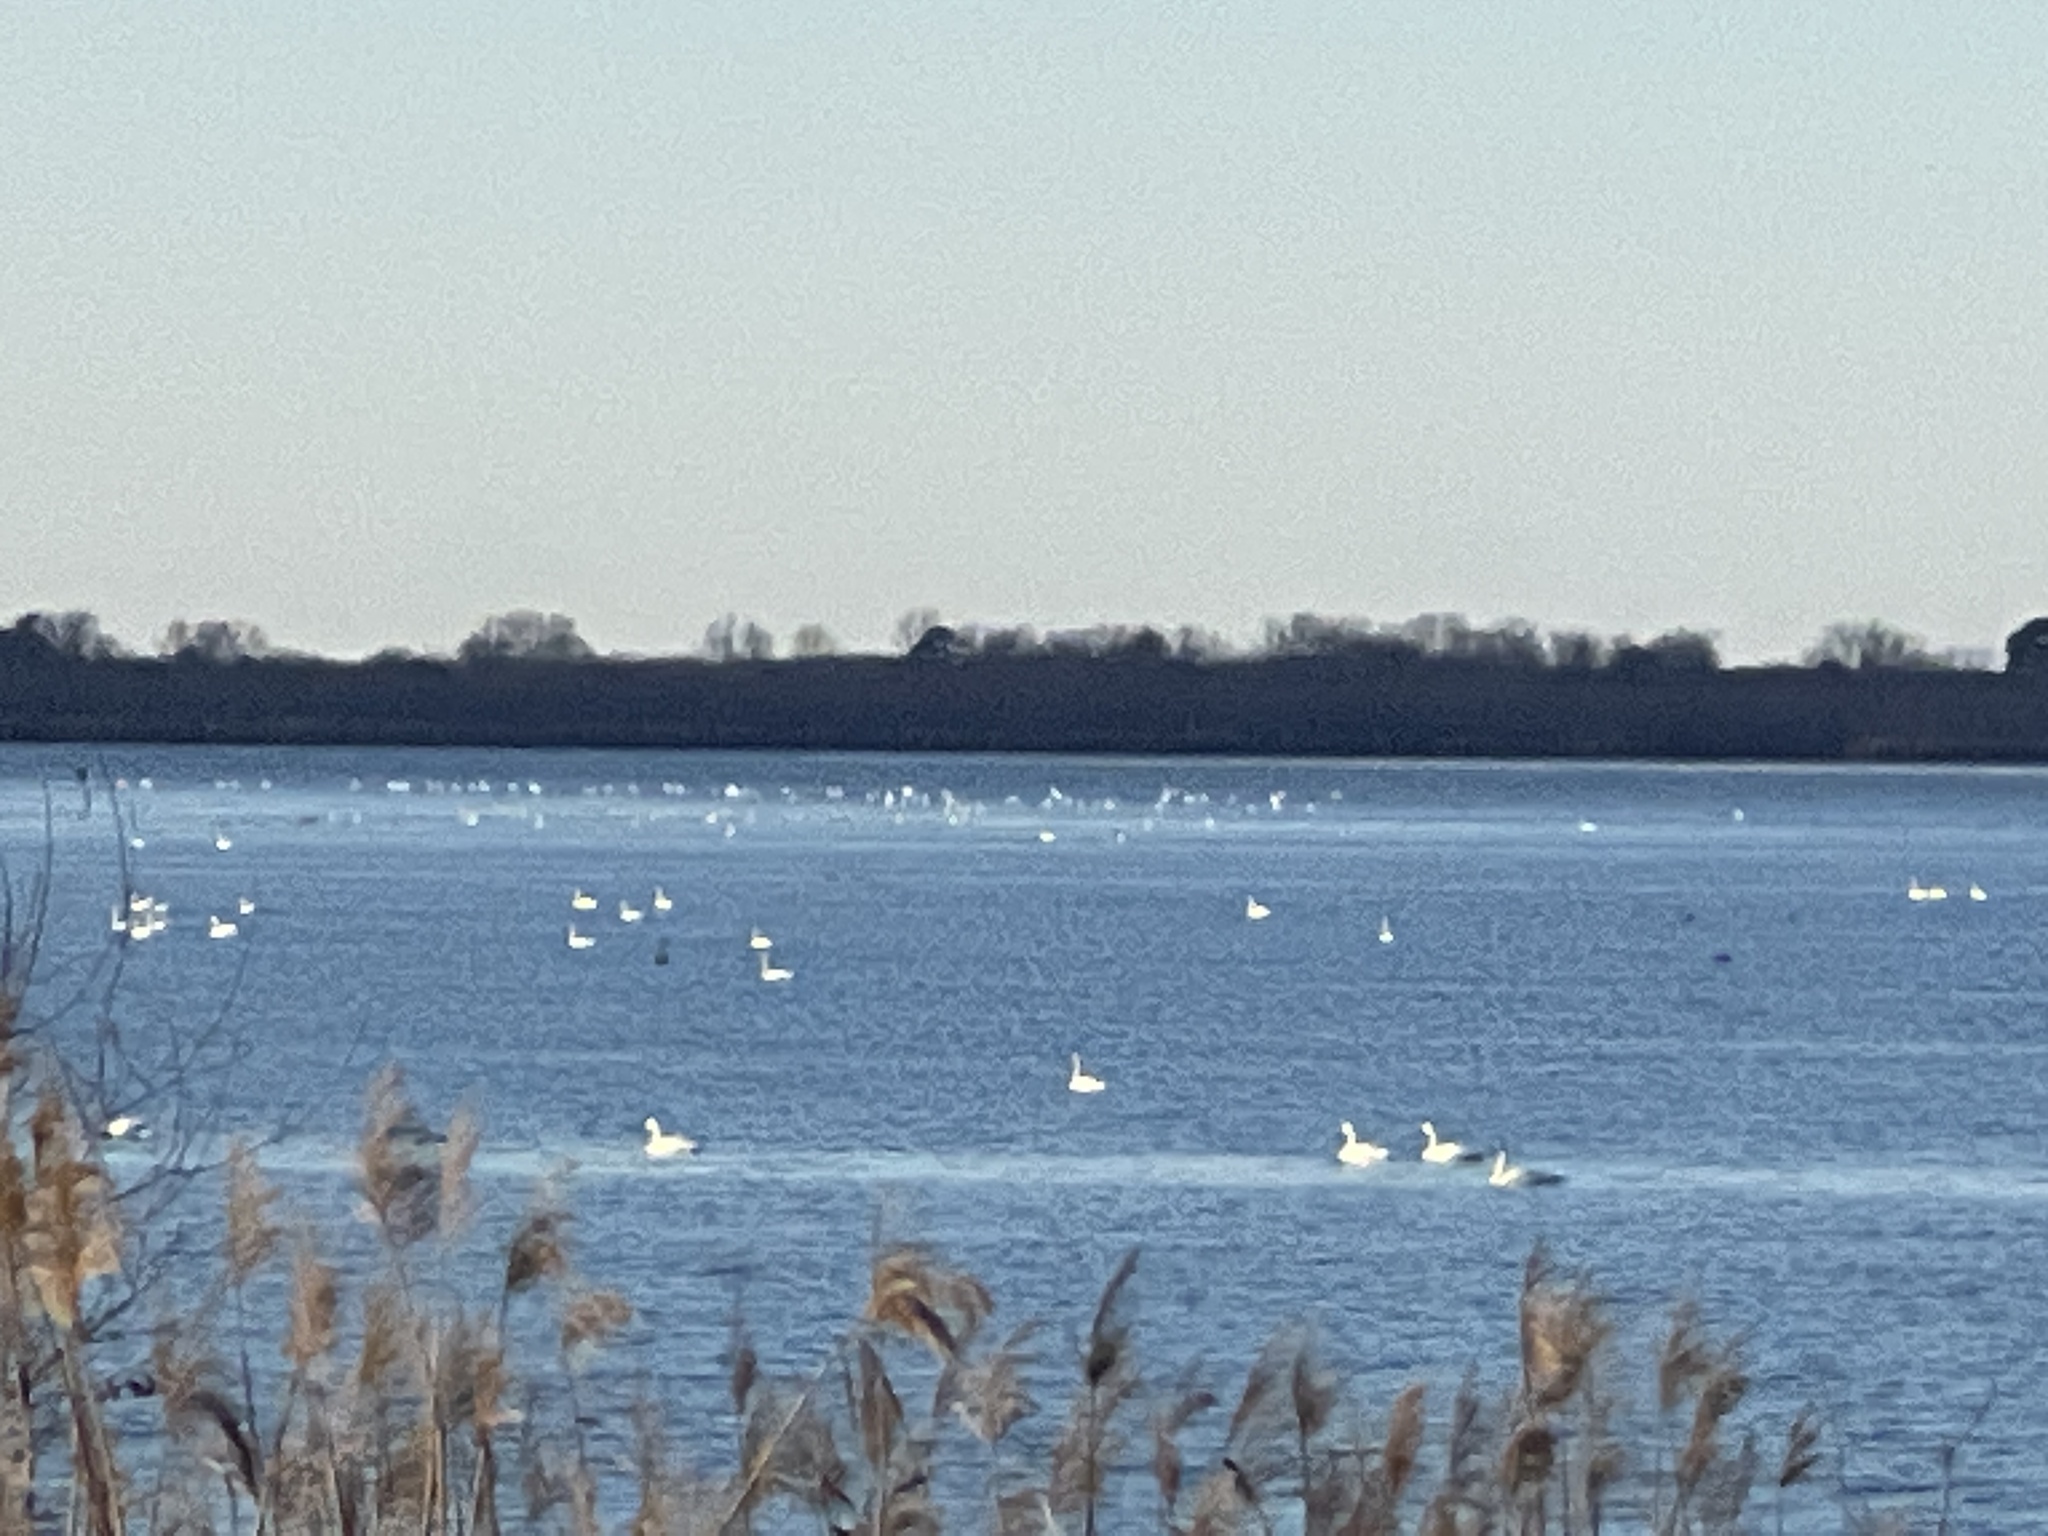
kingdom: Animalia
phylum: Chordata
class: Aves
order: Anseriformes
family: Anatidae
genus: Cygnus
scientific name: Cygnus columbianus
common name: Tundra swan
